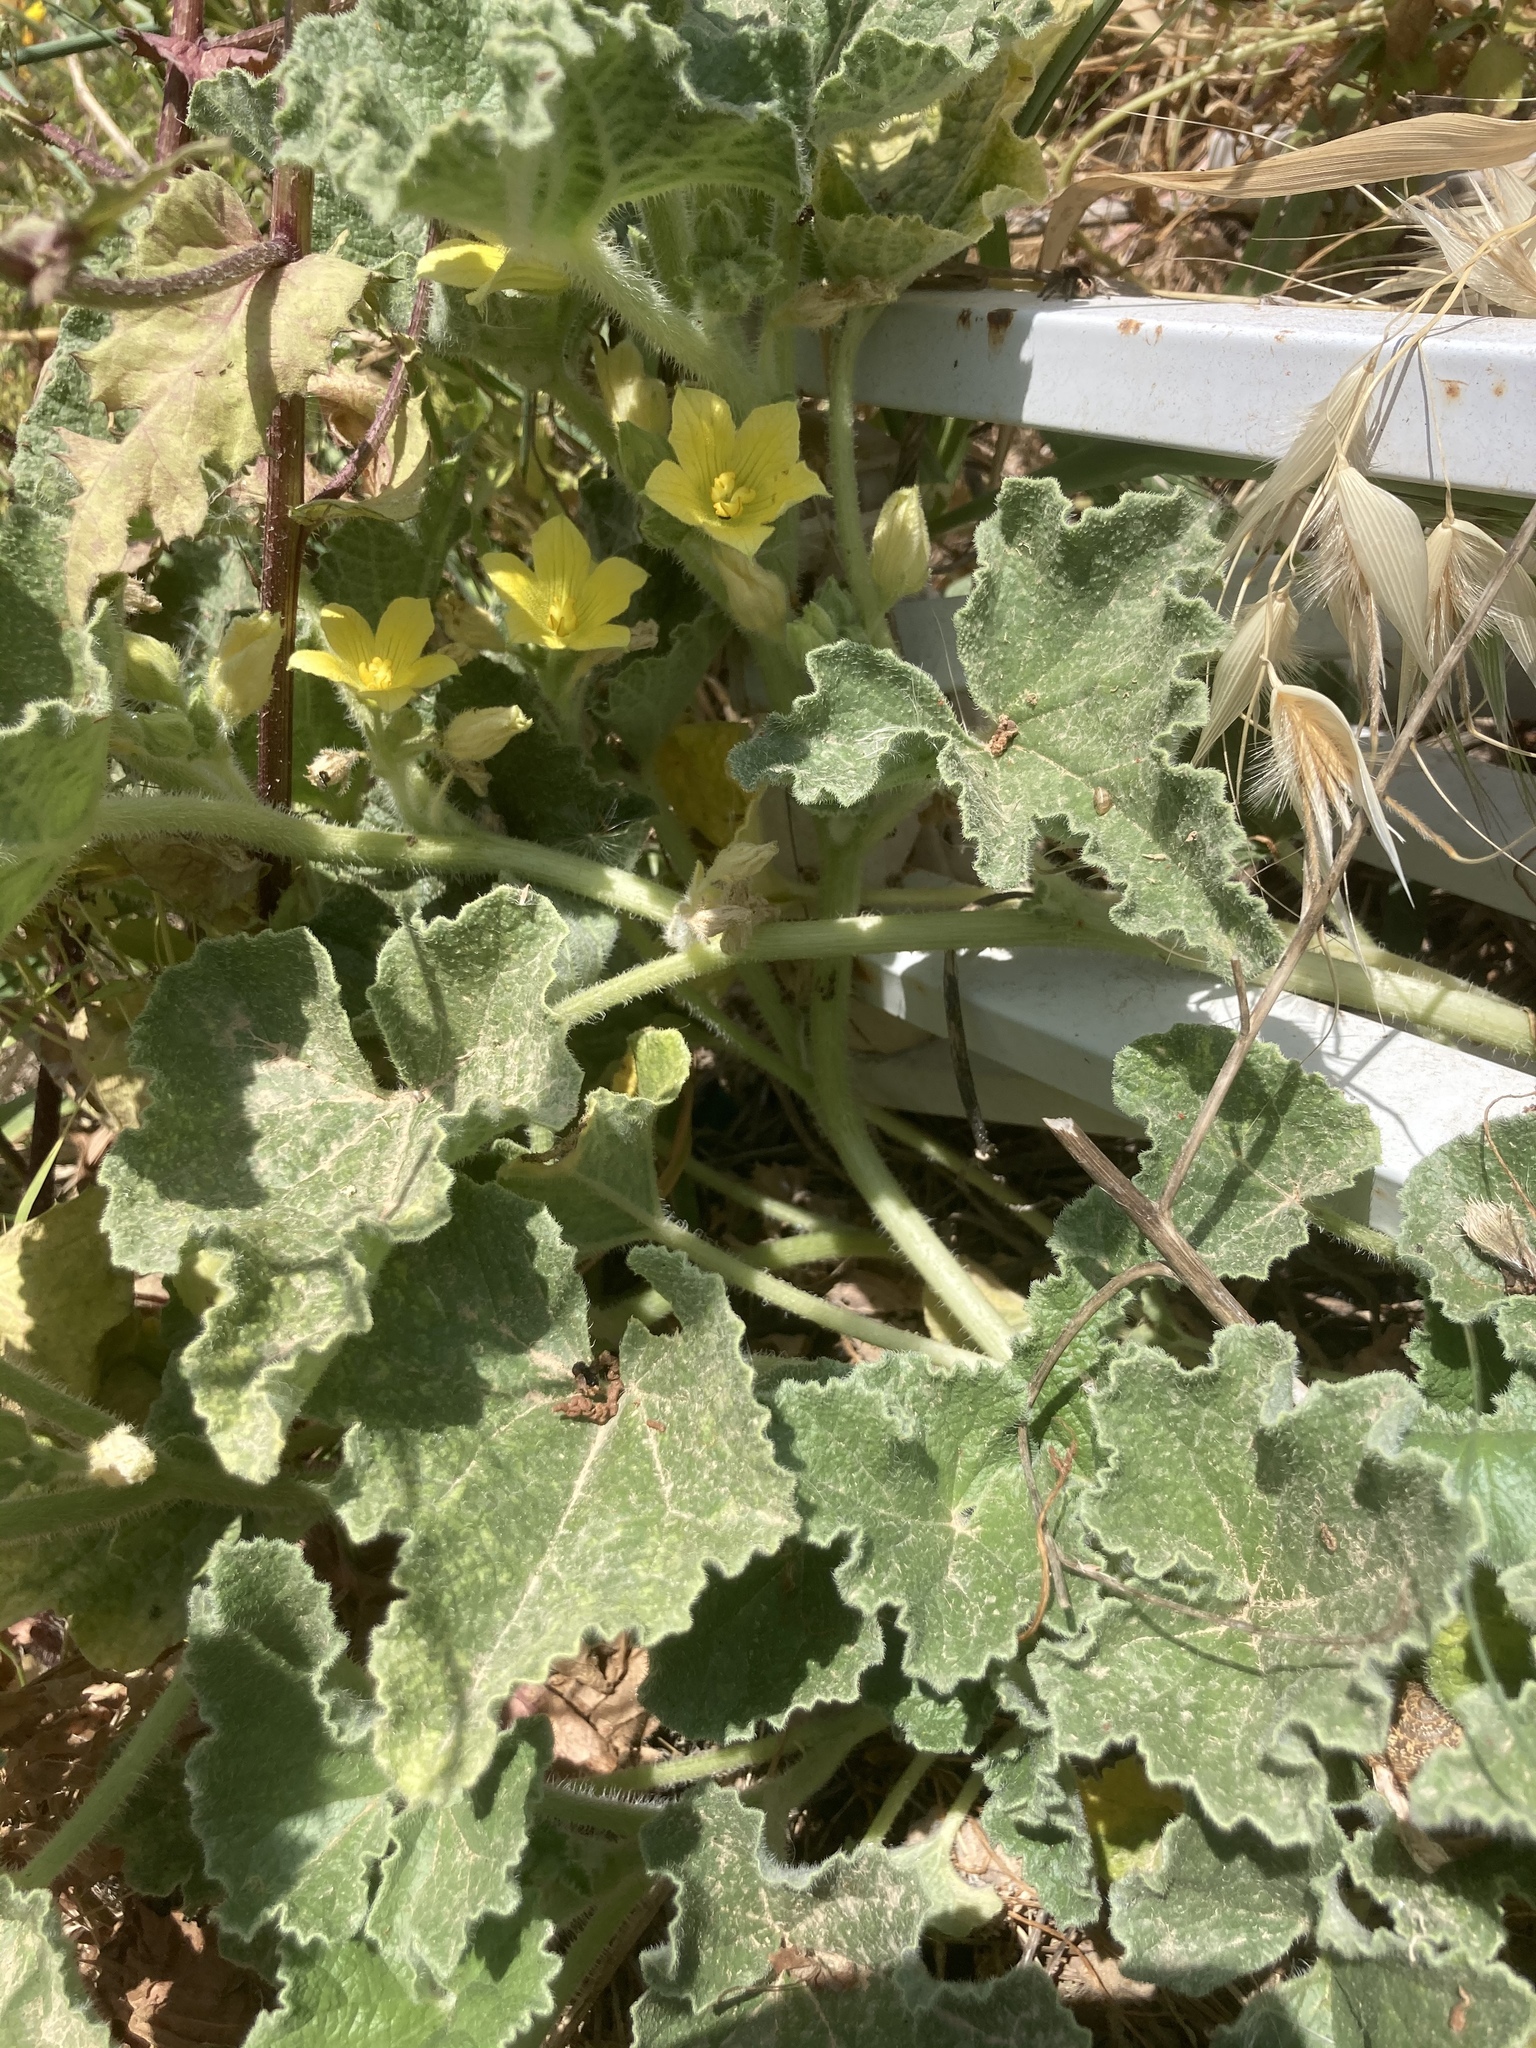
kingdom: Plantae
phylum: Tracheophyta
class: Magnoliopsida
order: Cucurbitales
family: Cucurbitaceae
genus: Ecballium
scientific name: Ecballium elaterium
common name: Squirting cucumber
